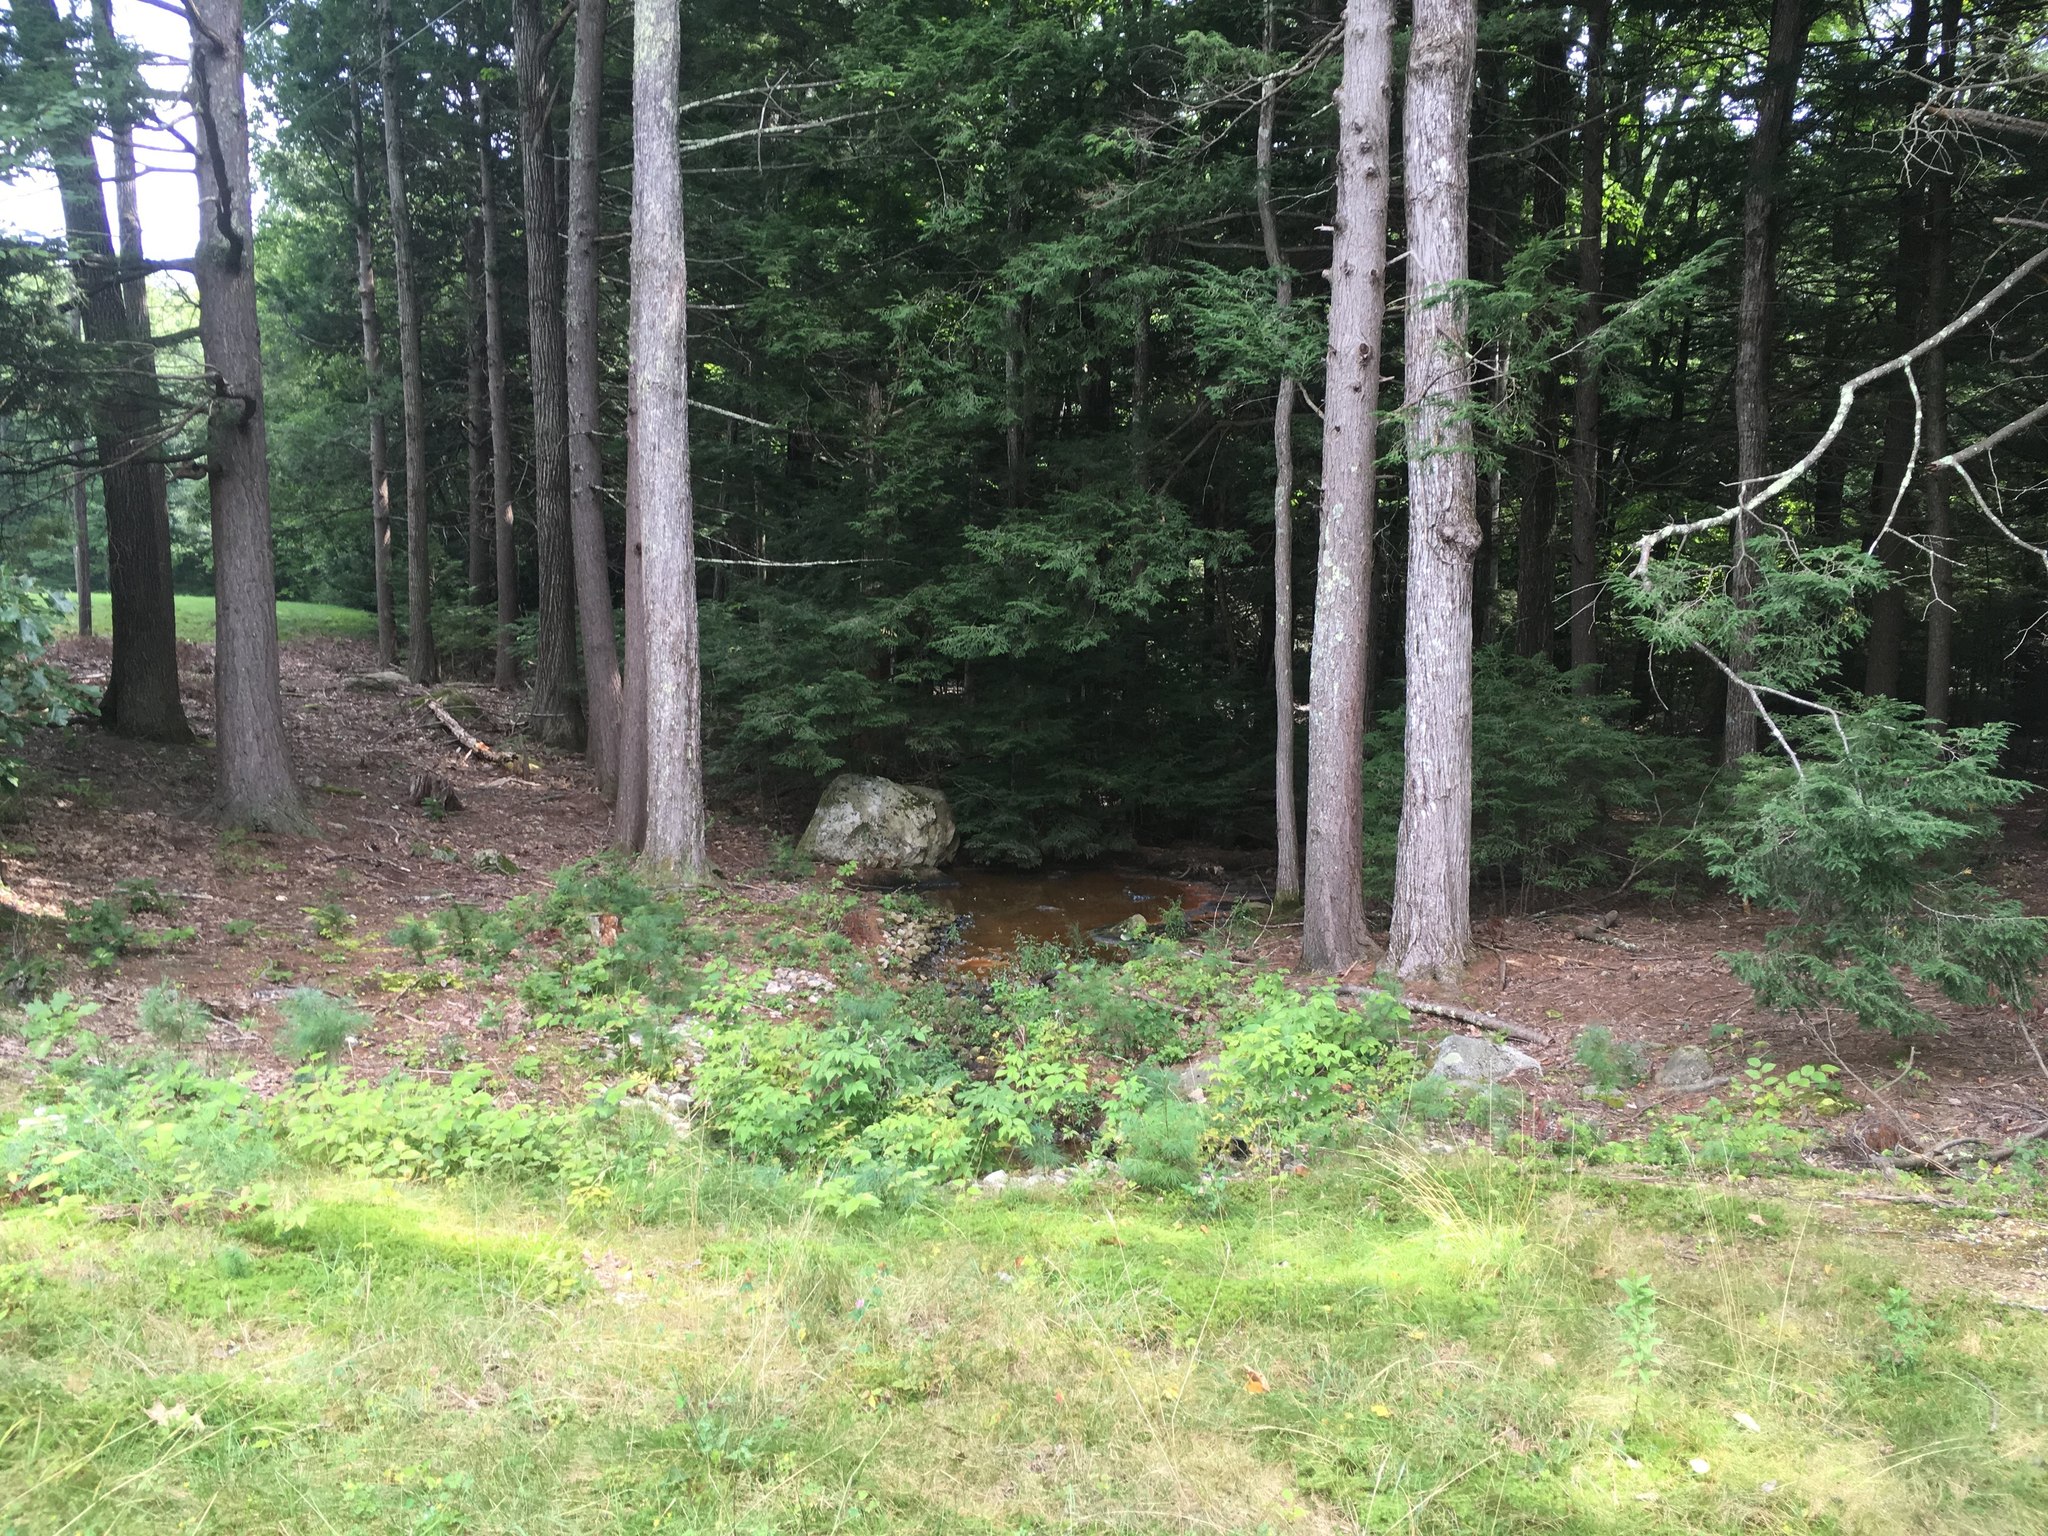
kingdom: Plantae
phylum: Tracheophyta
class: Pinopsida
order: Pinales
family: Pinaceae
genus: Tsuga
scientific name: Tsuga canadensis
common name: Eastern hemlock
